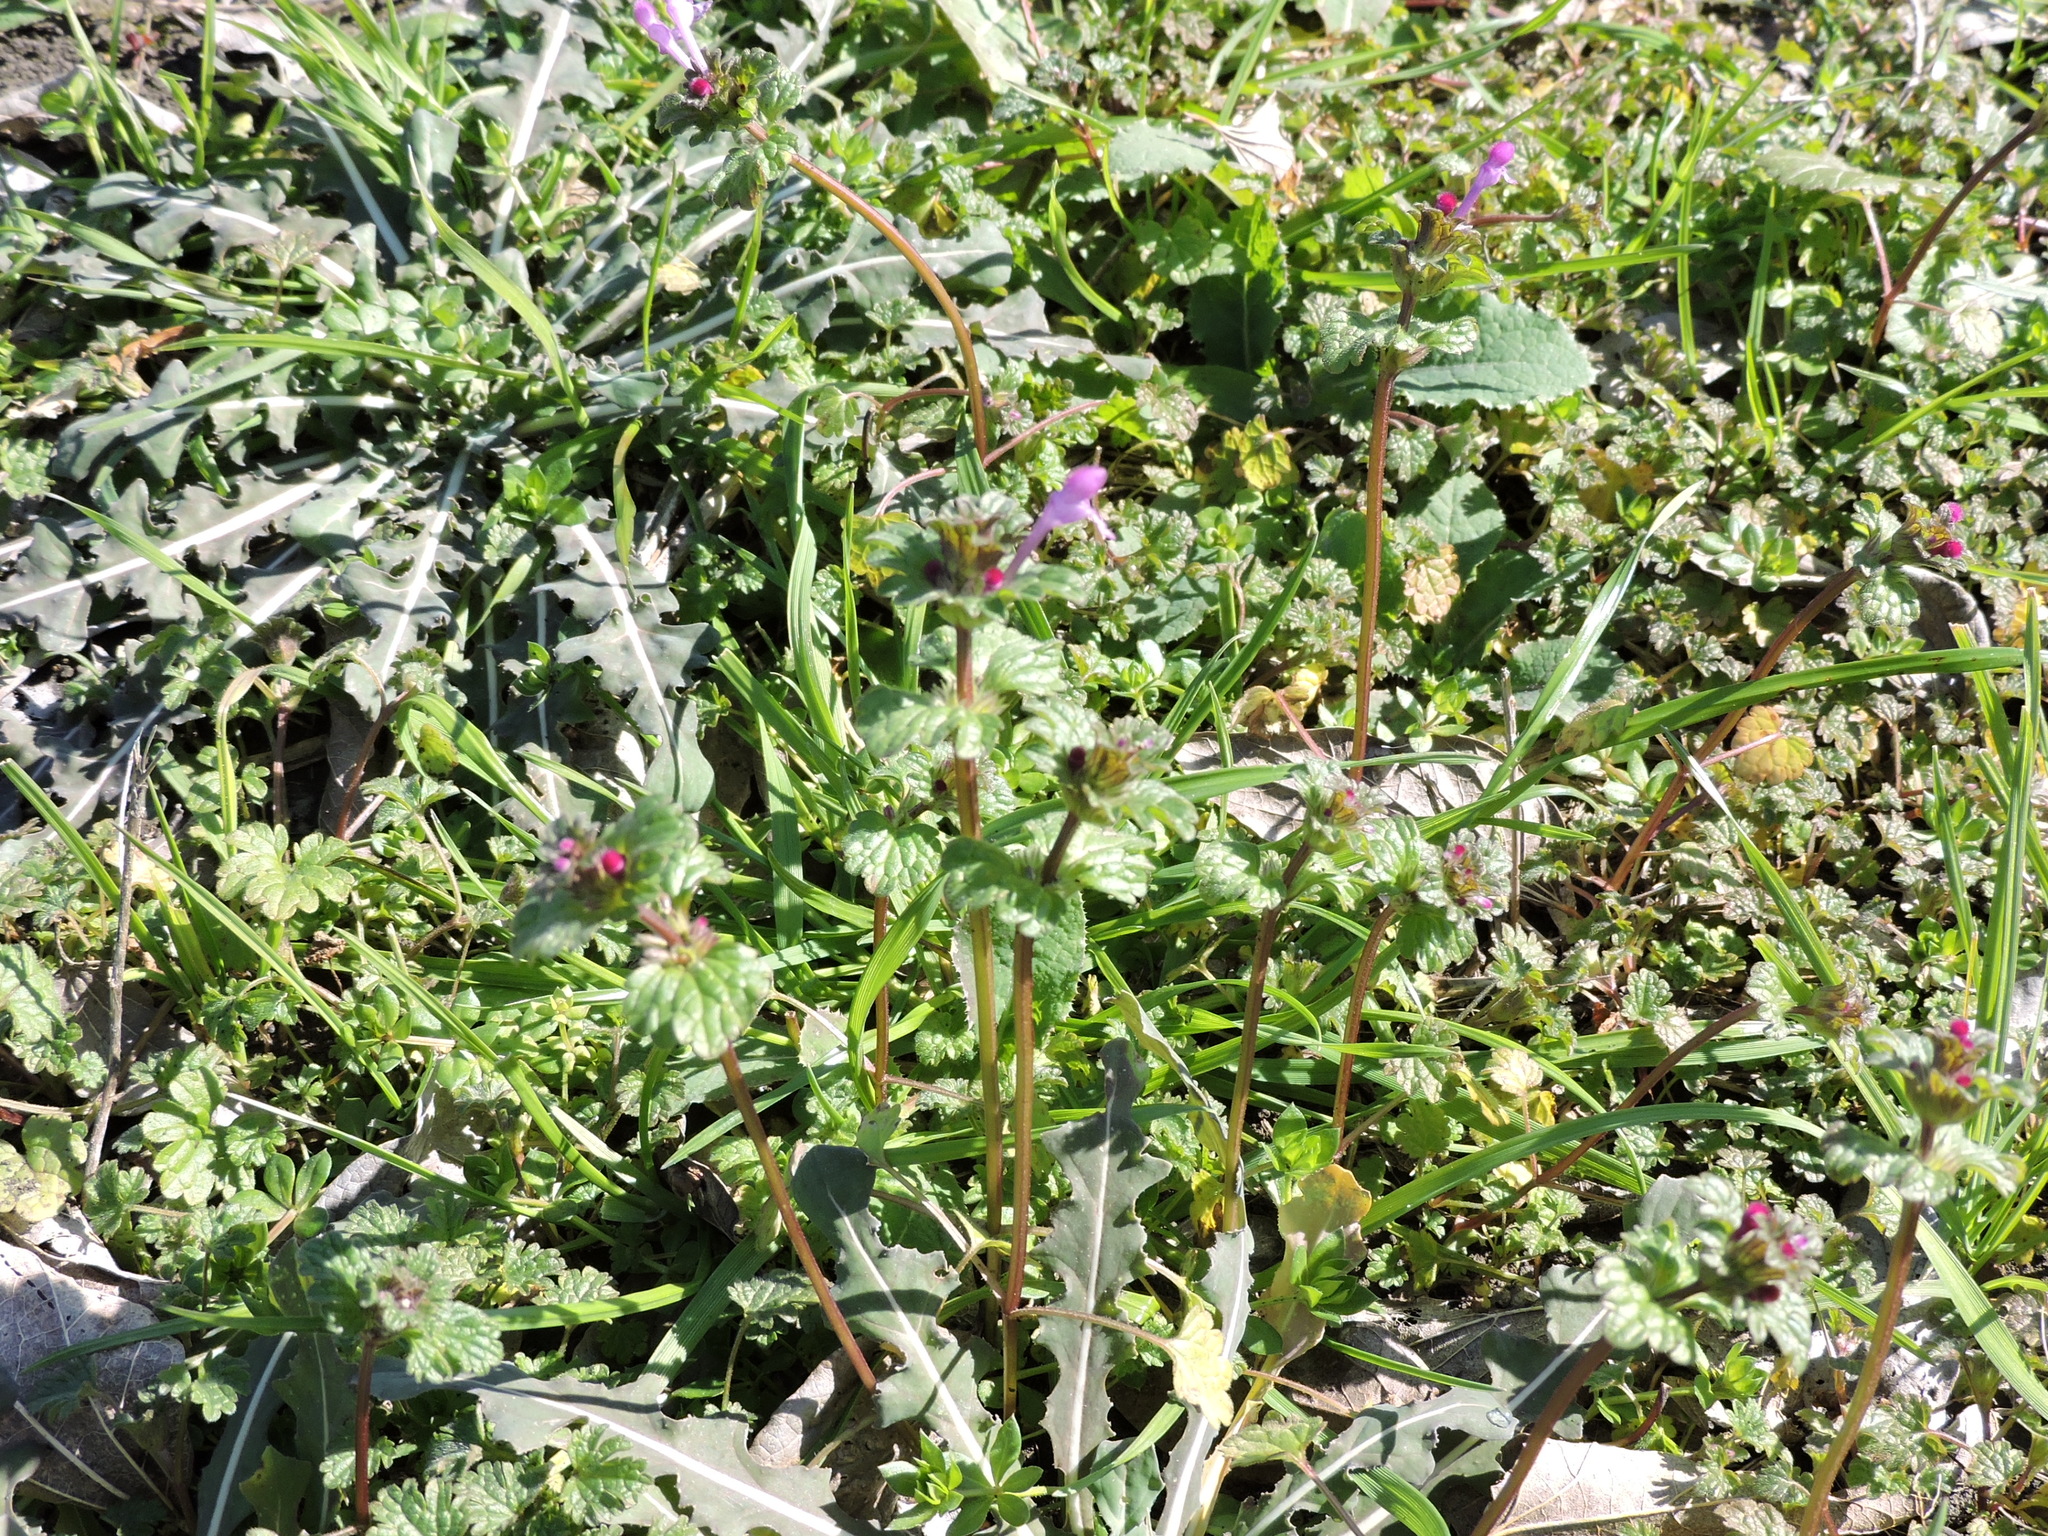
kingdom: Plantae
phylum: Tracheophyta
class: Magnoliopsida
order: Lamiales
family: Lamiaceae
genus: Lamium
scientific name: Lamium amplexicaule
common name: Henbit dead-nettle
